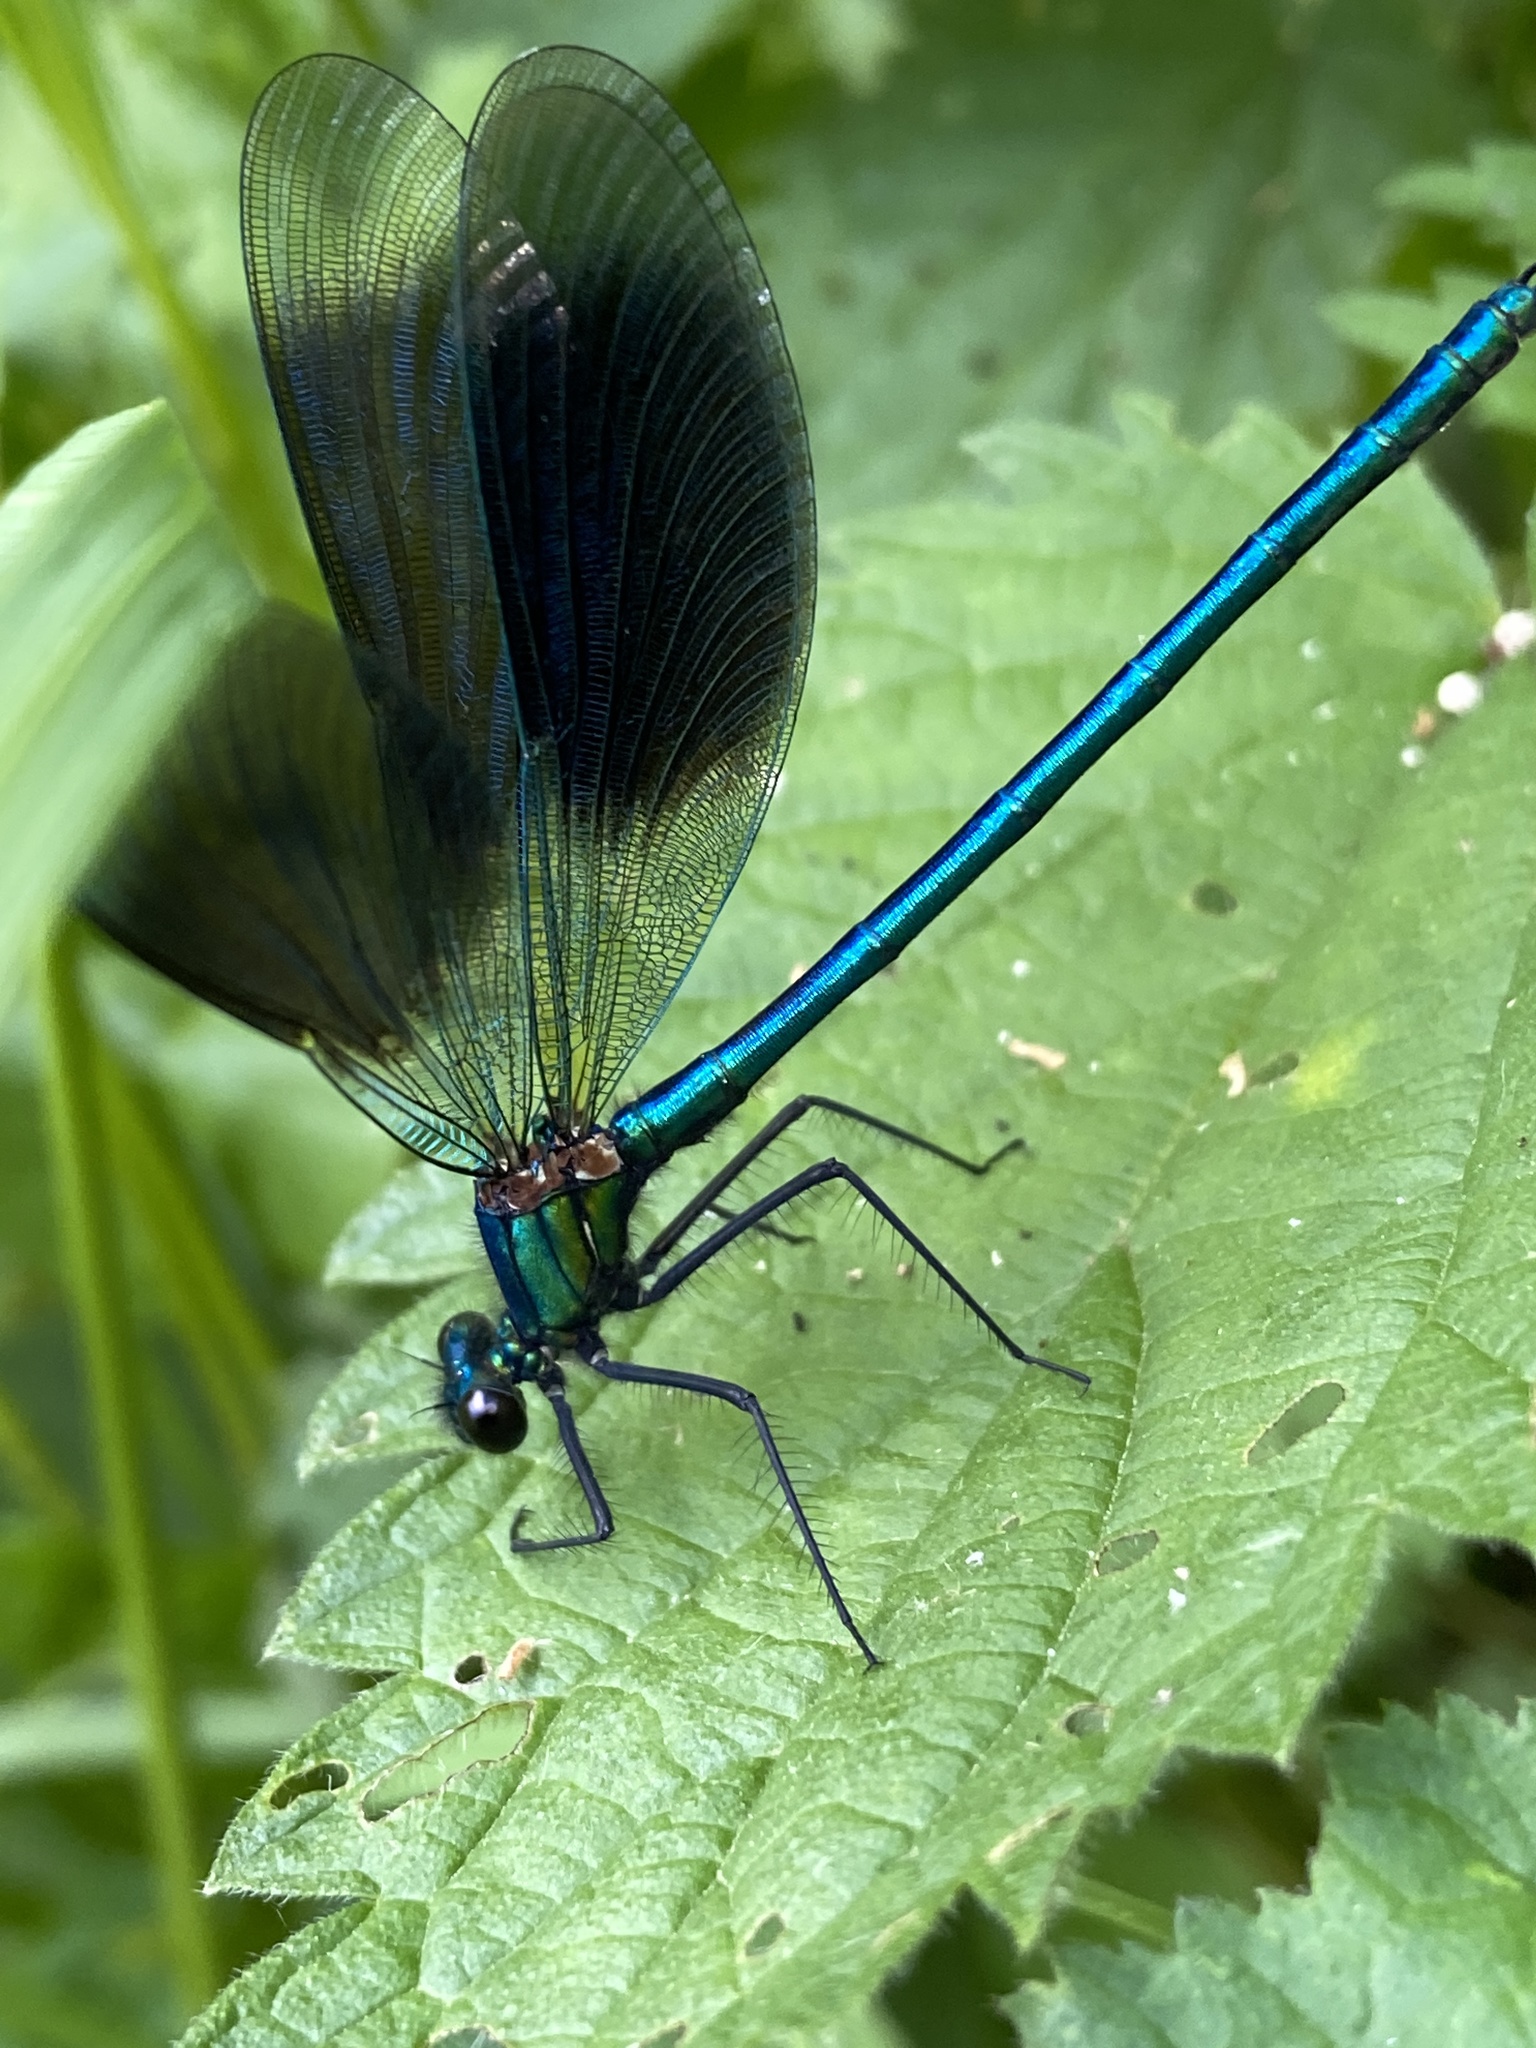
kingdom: Animalia
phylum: Arthropoda
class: Insecta
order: Odonata
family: Calopterygidae
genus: Calopteryx
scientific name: Calopteryx splendens
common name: Banded demoiselle
